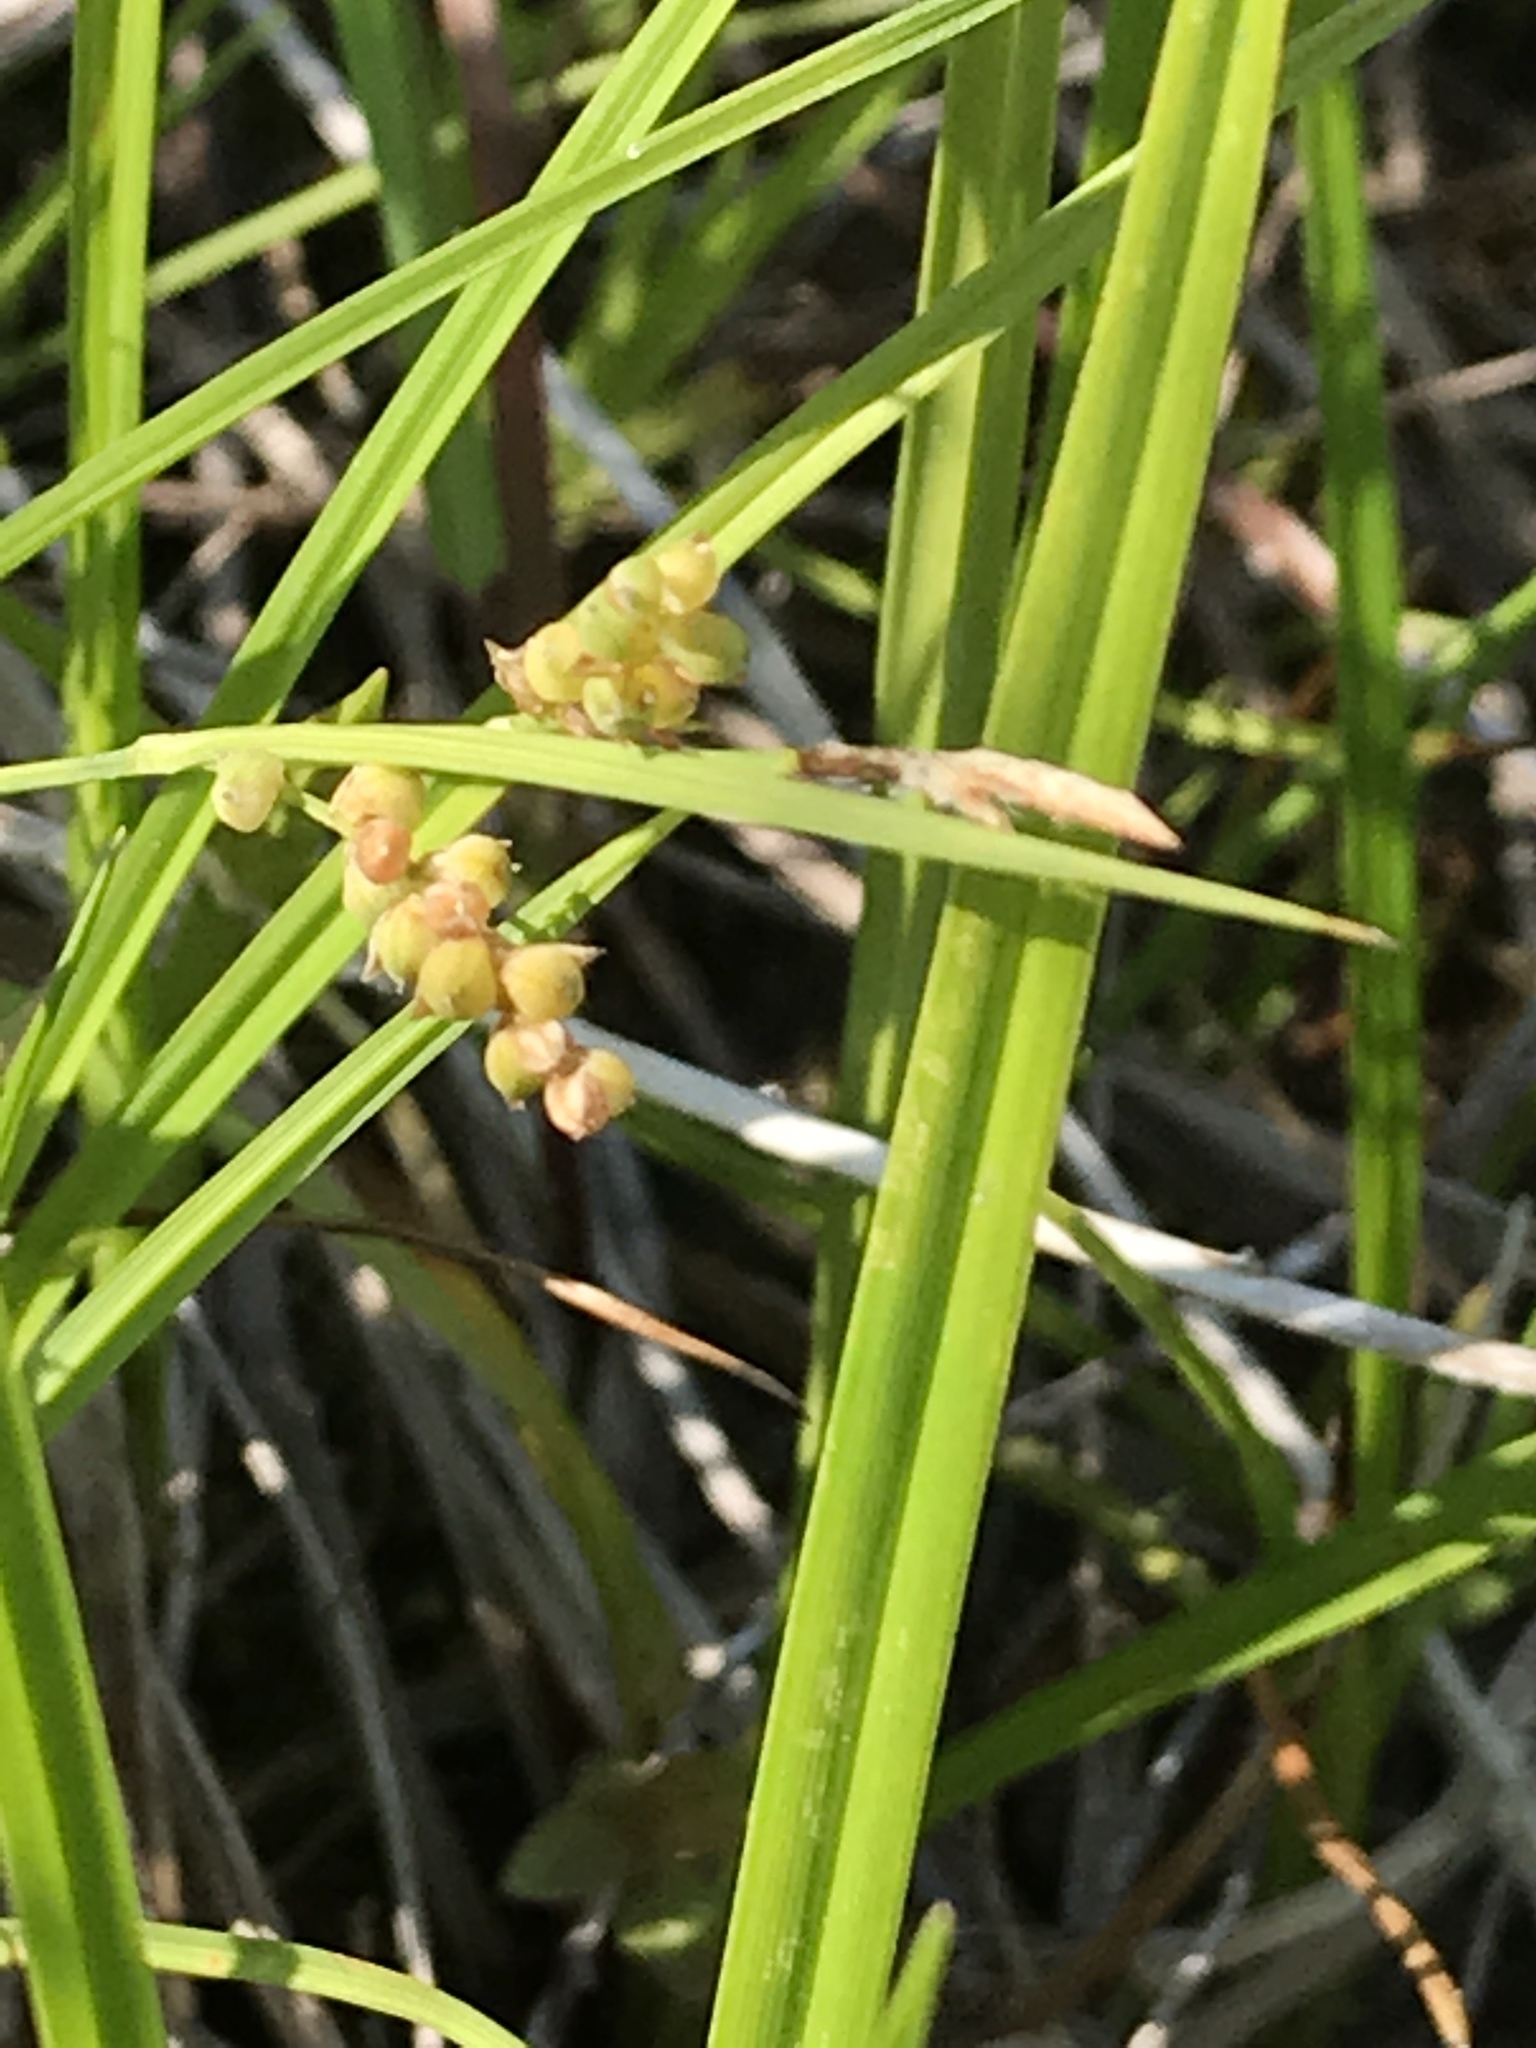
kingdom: Plantae
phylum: Tracheophyta
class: Liliopsida
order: Poales
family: Cyperaceae
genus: Carex
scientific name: Carex aurea
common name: Golden sedge
